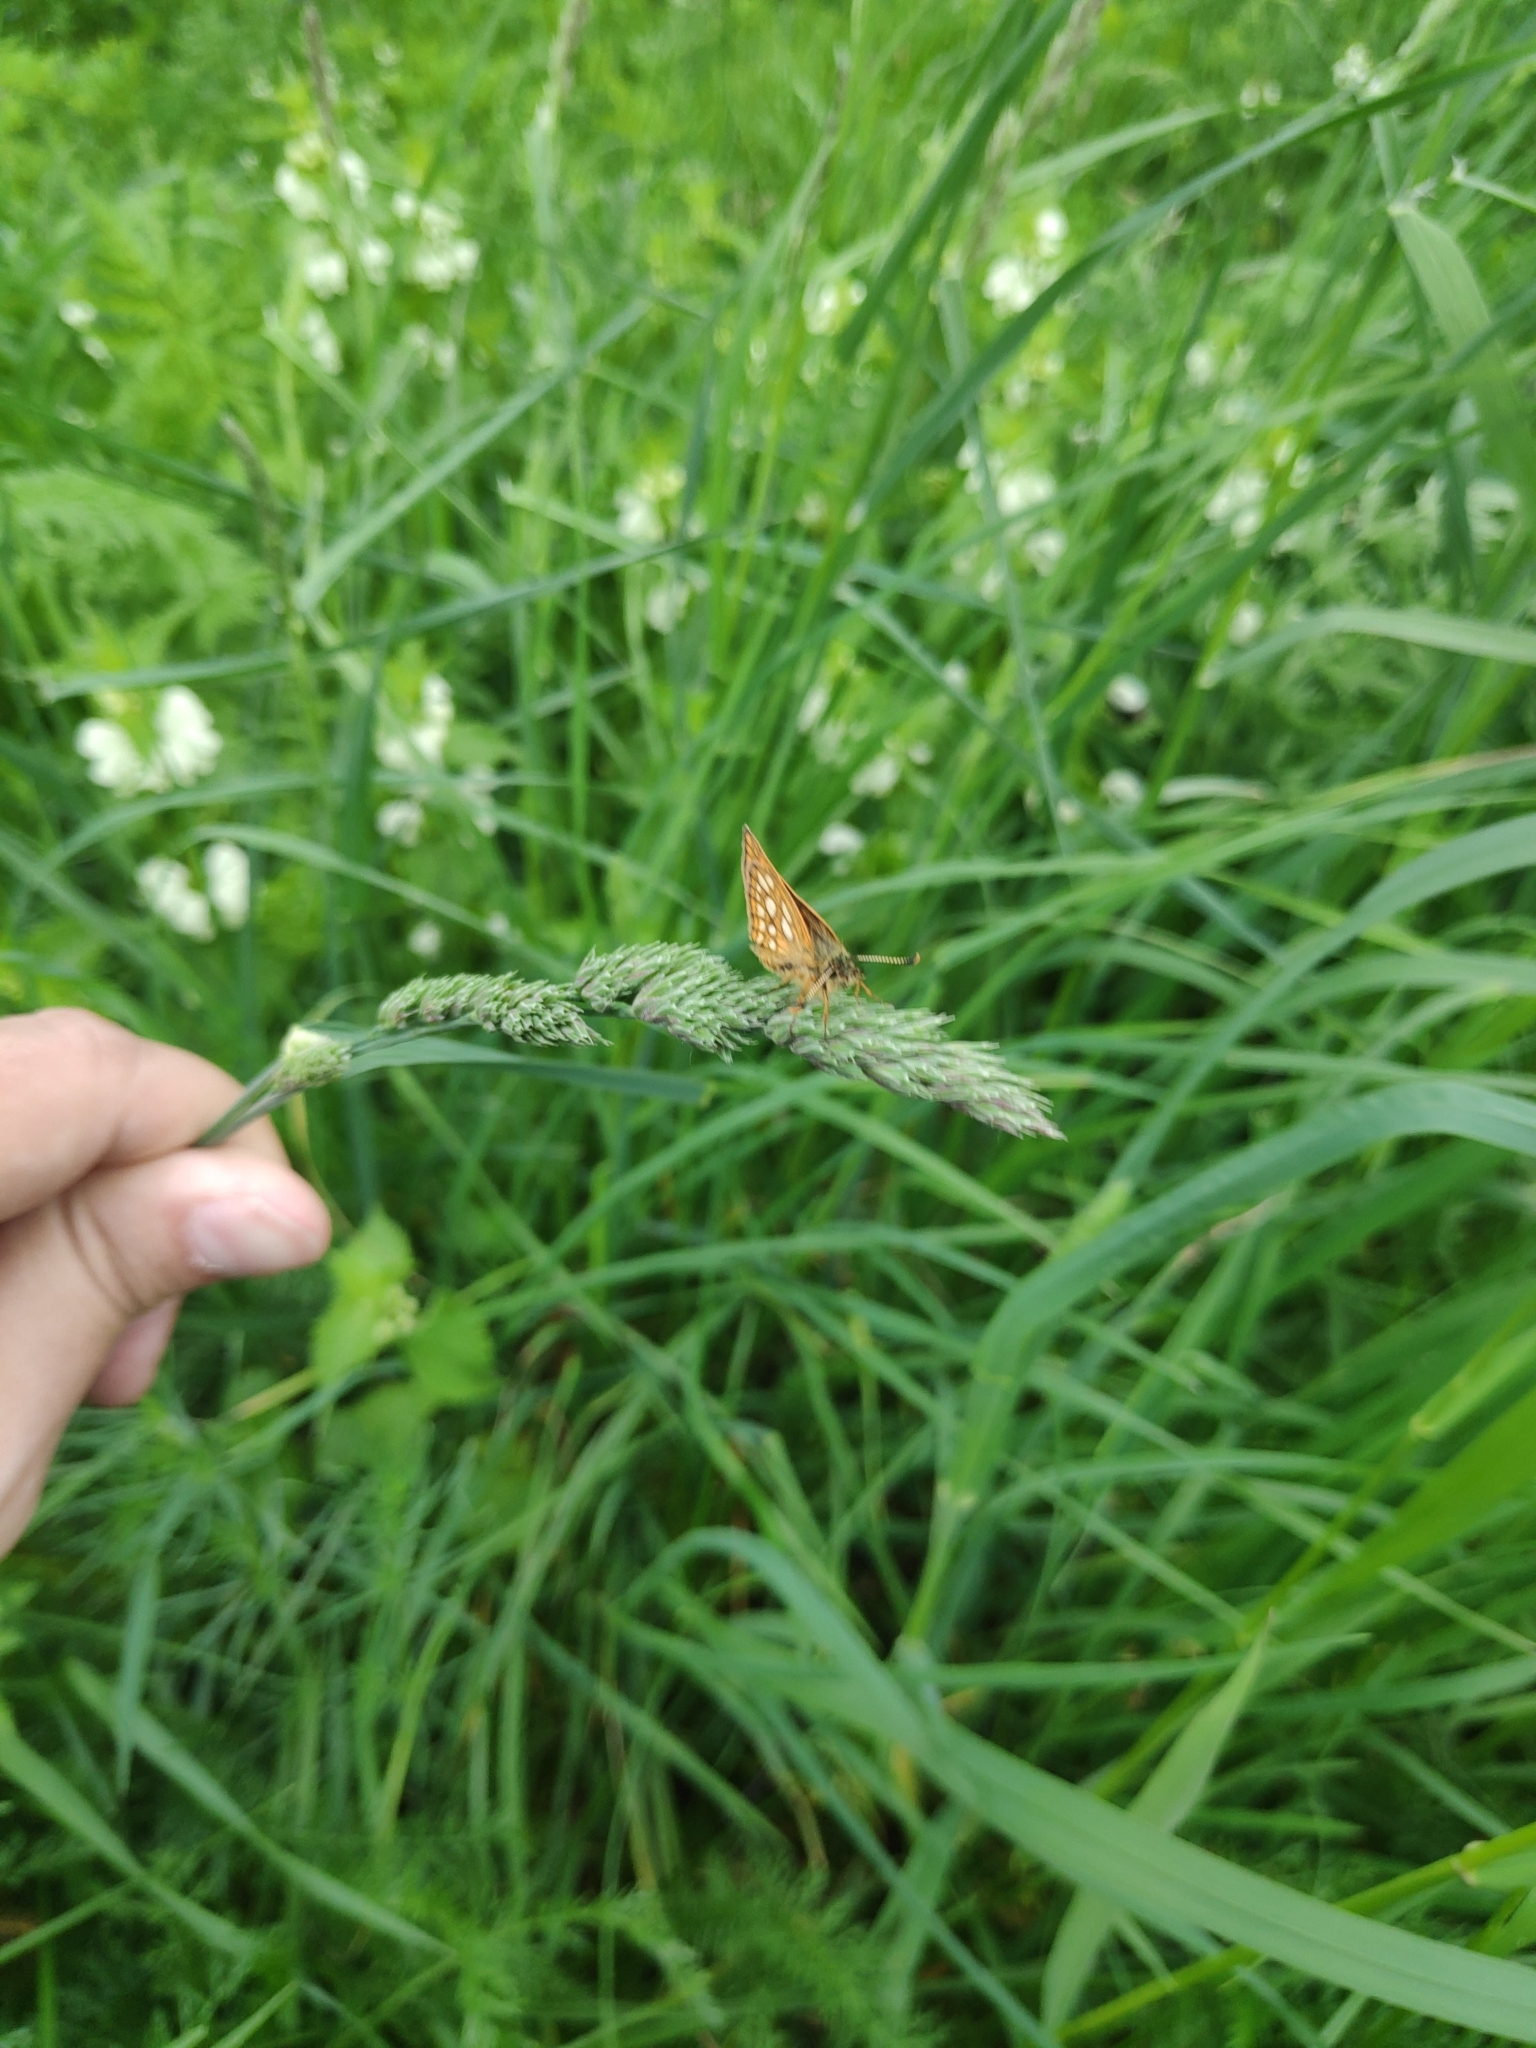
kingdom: Animalia
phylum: Arthropoda
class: Insecta
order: Lepidoptera
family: Hesperiidae
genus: Carterocephalus
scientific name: Carterocephalus palaemon
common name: Chequered skipper
